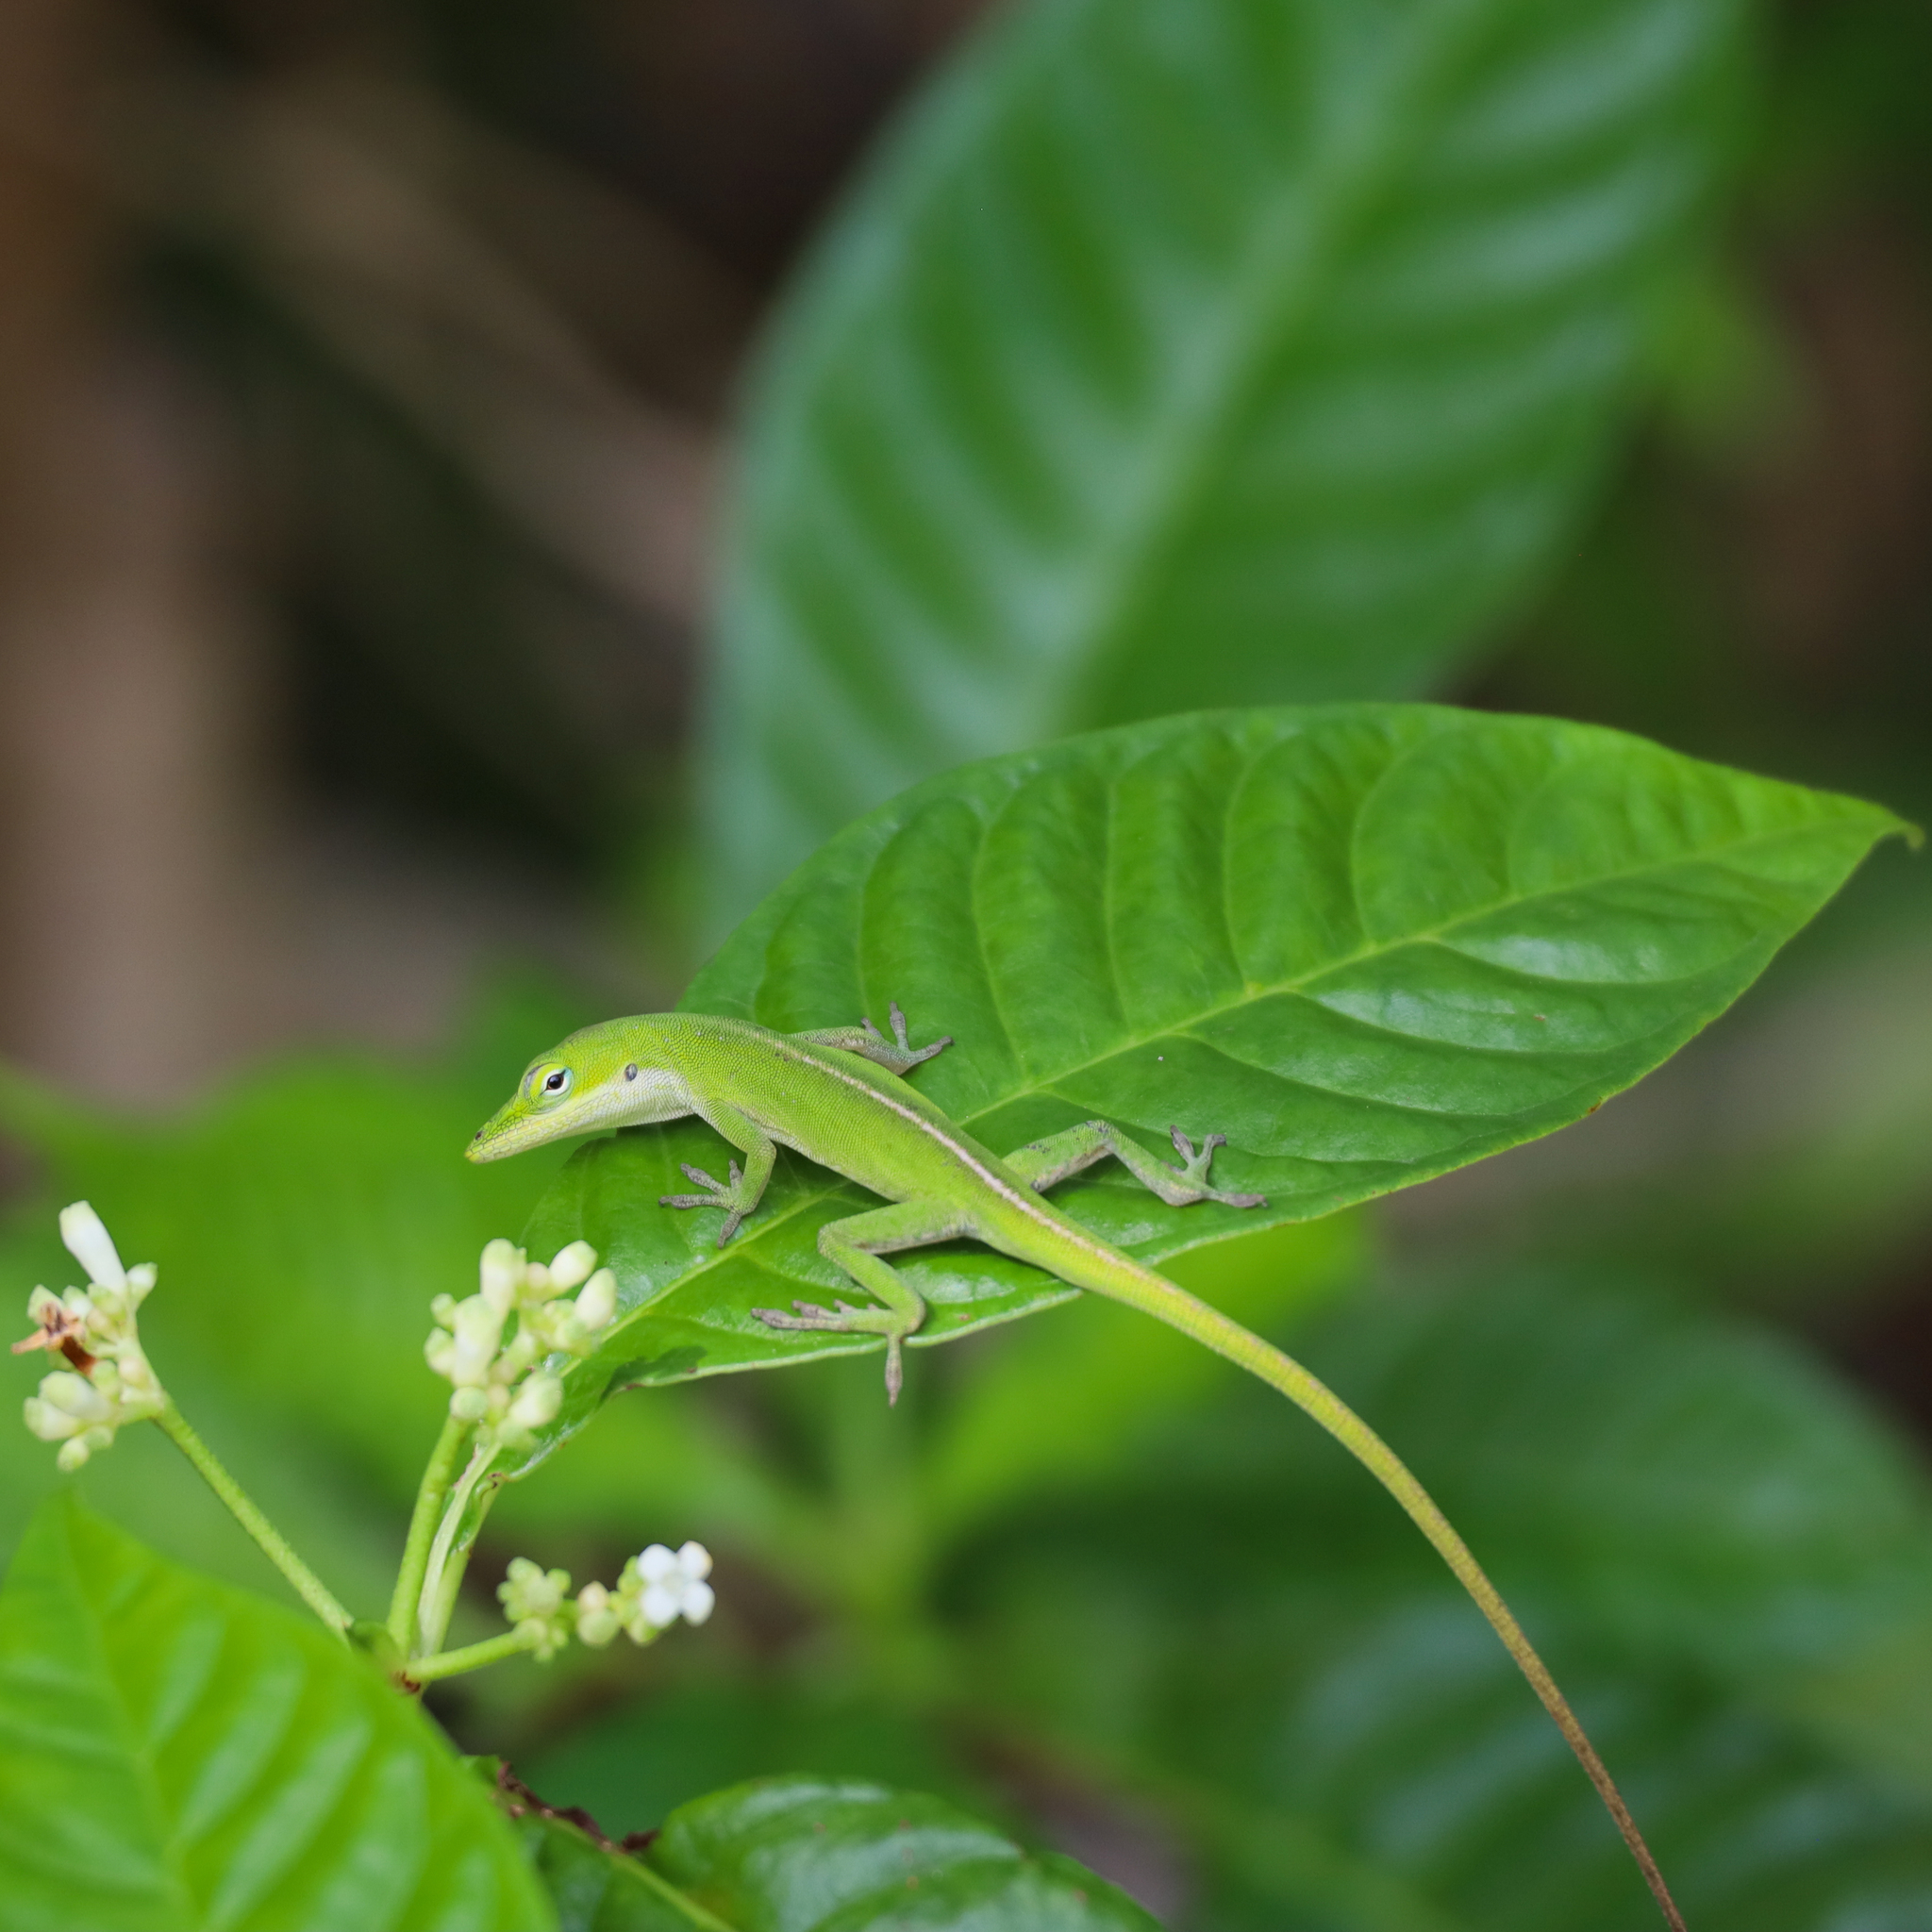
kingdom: Animalia
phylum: Chordata
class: Squamata
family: Dactyloidae
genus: Anolis
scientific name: Anolis carolinensis
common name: Green anole
